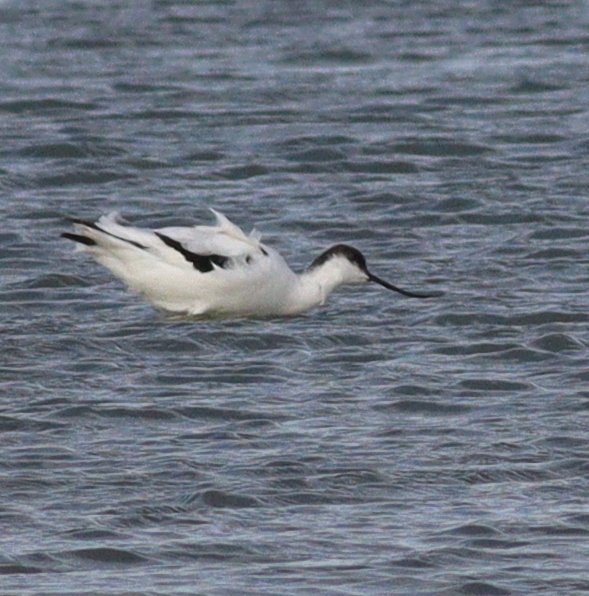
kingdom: Animalia
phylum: Chordata
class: Aves
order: Charadriiformes
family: Recurvirostridae
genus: Recurvirostra
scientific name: Recurvirostra avosetta
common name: Pied avocet
